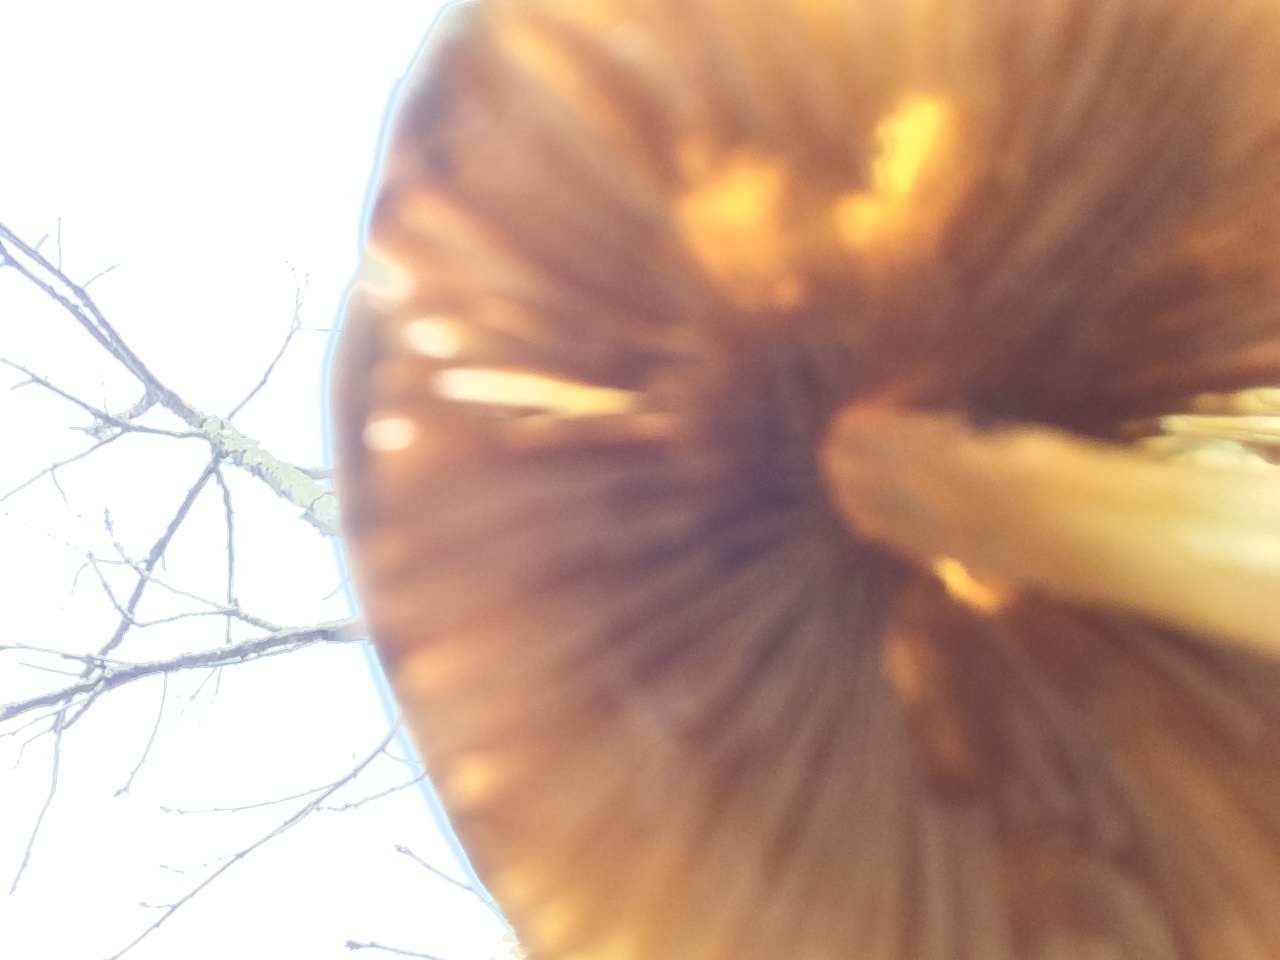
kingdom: Fungi
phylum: Basidiomycota
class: Agaricomycetes
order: Agaricales
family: Bolbitiaceae
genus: Bolbitius
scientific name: Bolbitius titubans
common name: Yellow fieldcap
